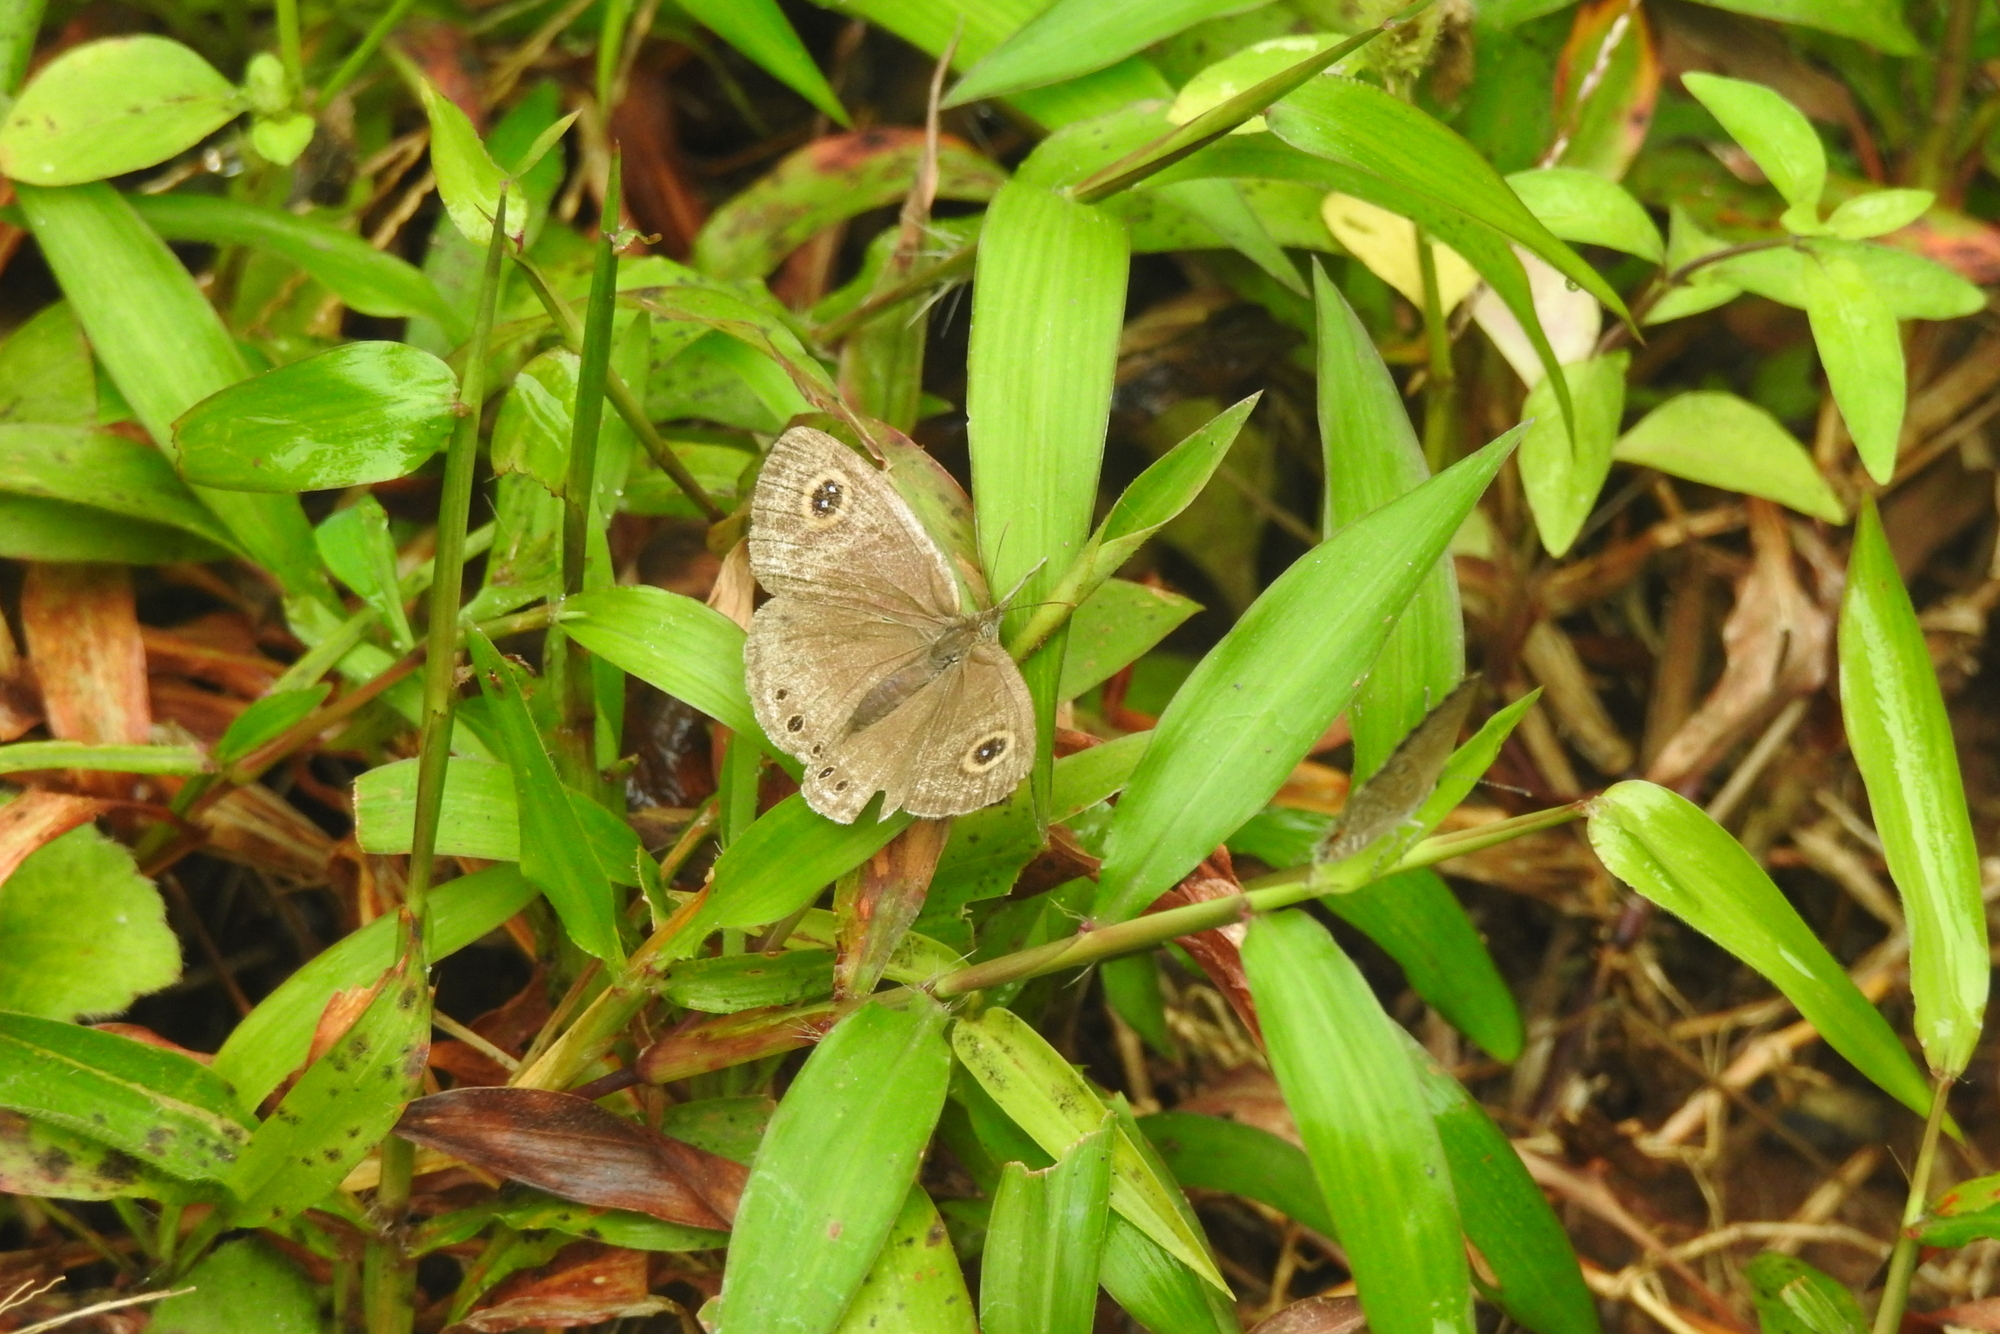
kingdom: Animalia
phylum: Arthropoda
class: Insecta
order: Lepidoptera
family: Nymphalidae
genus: Ypthima
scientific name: Ypthima huebneri
